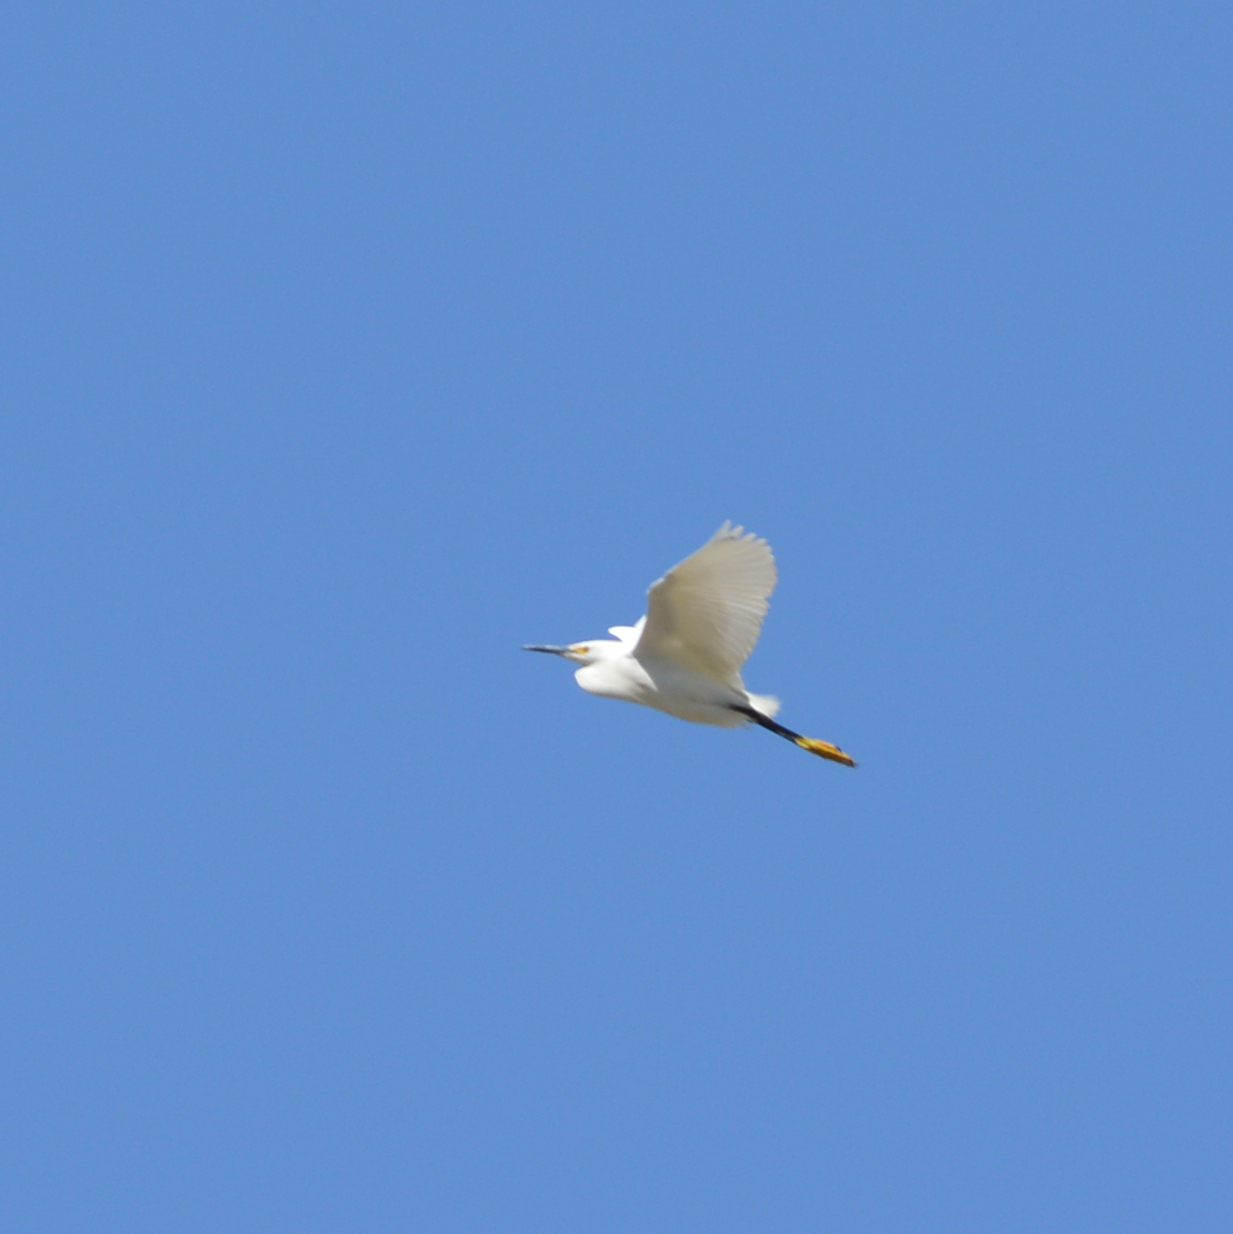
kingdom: Animalia
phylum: Chordata
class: Aves
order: Pelecaniformes
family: Ardeidae
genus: Egretta
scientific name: Egretta thula
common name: Snowy egret
